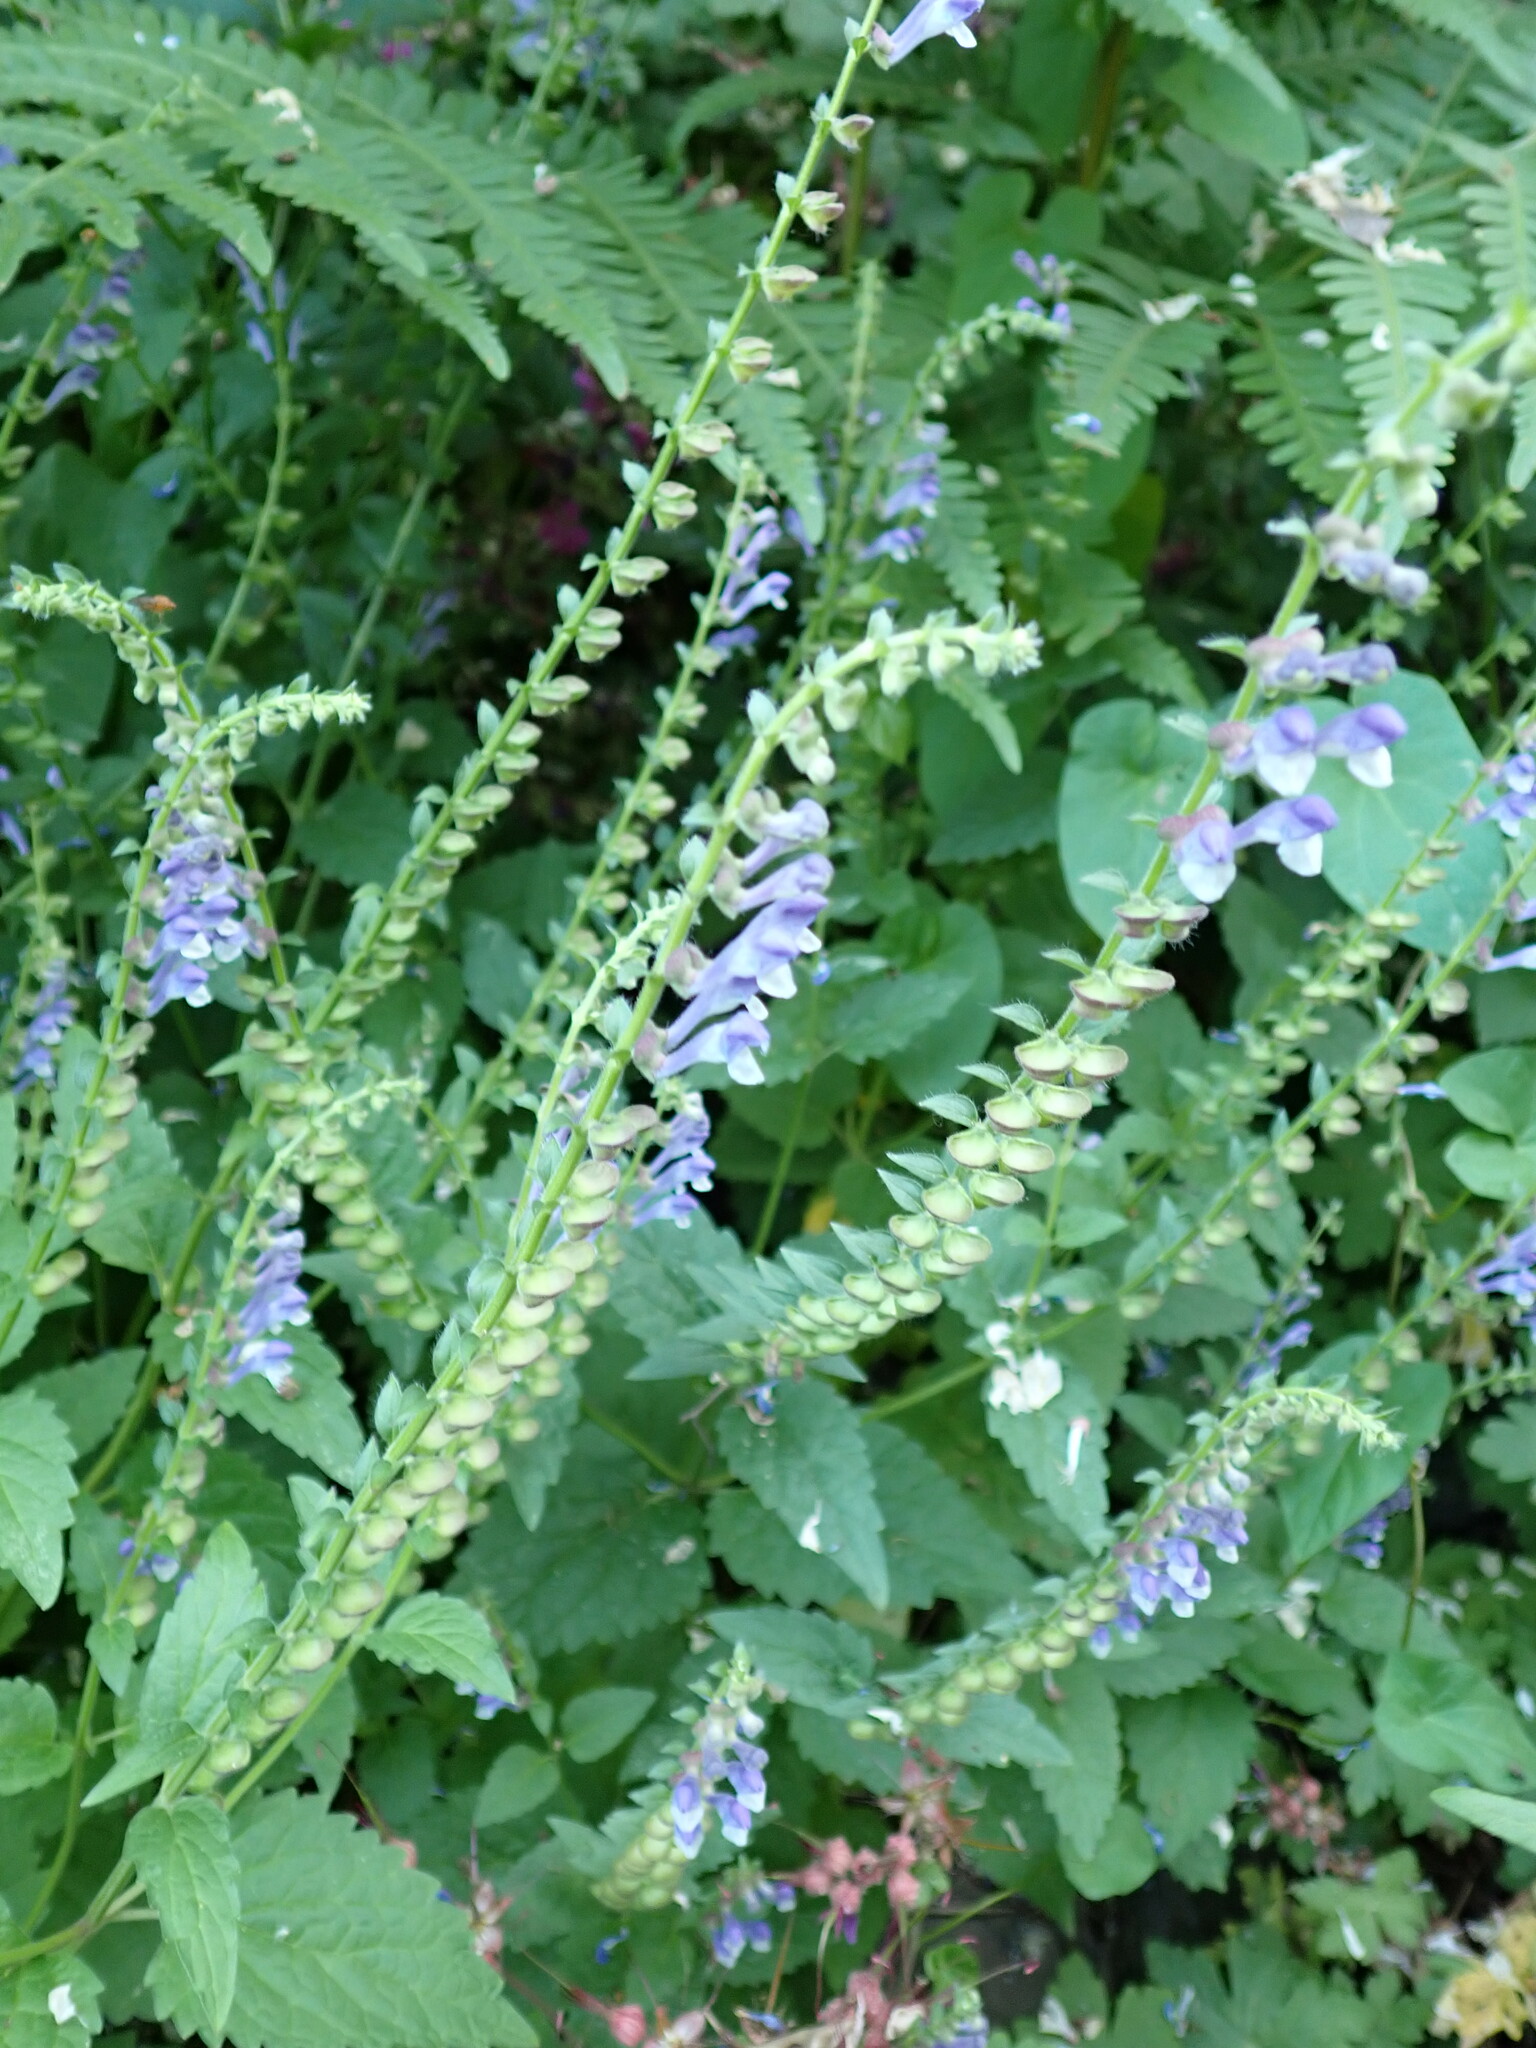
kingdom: Plantae
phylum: Tracheophyta
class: Magnoliopsida
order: Lamiales
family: Lamiaceae
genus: Scutellaria
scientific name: Scutellaria altissima
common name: Somerset skullcap
